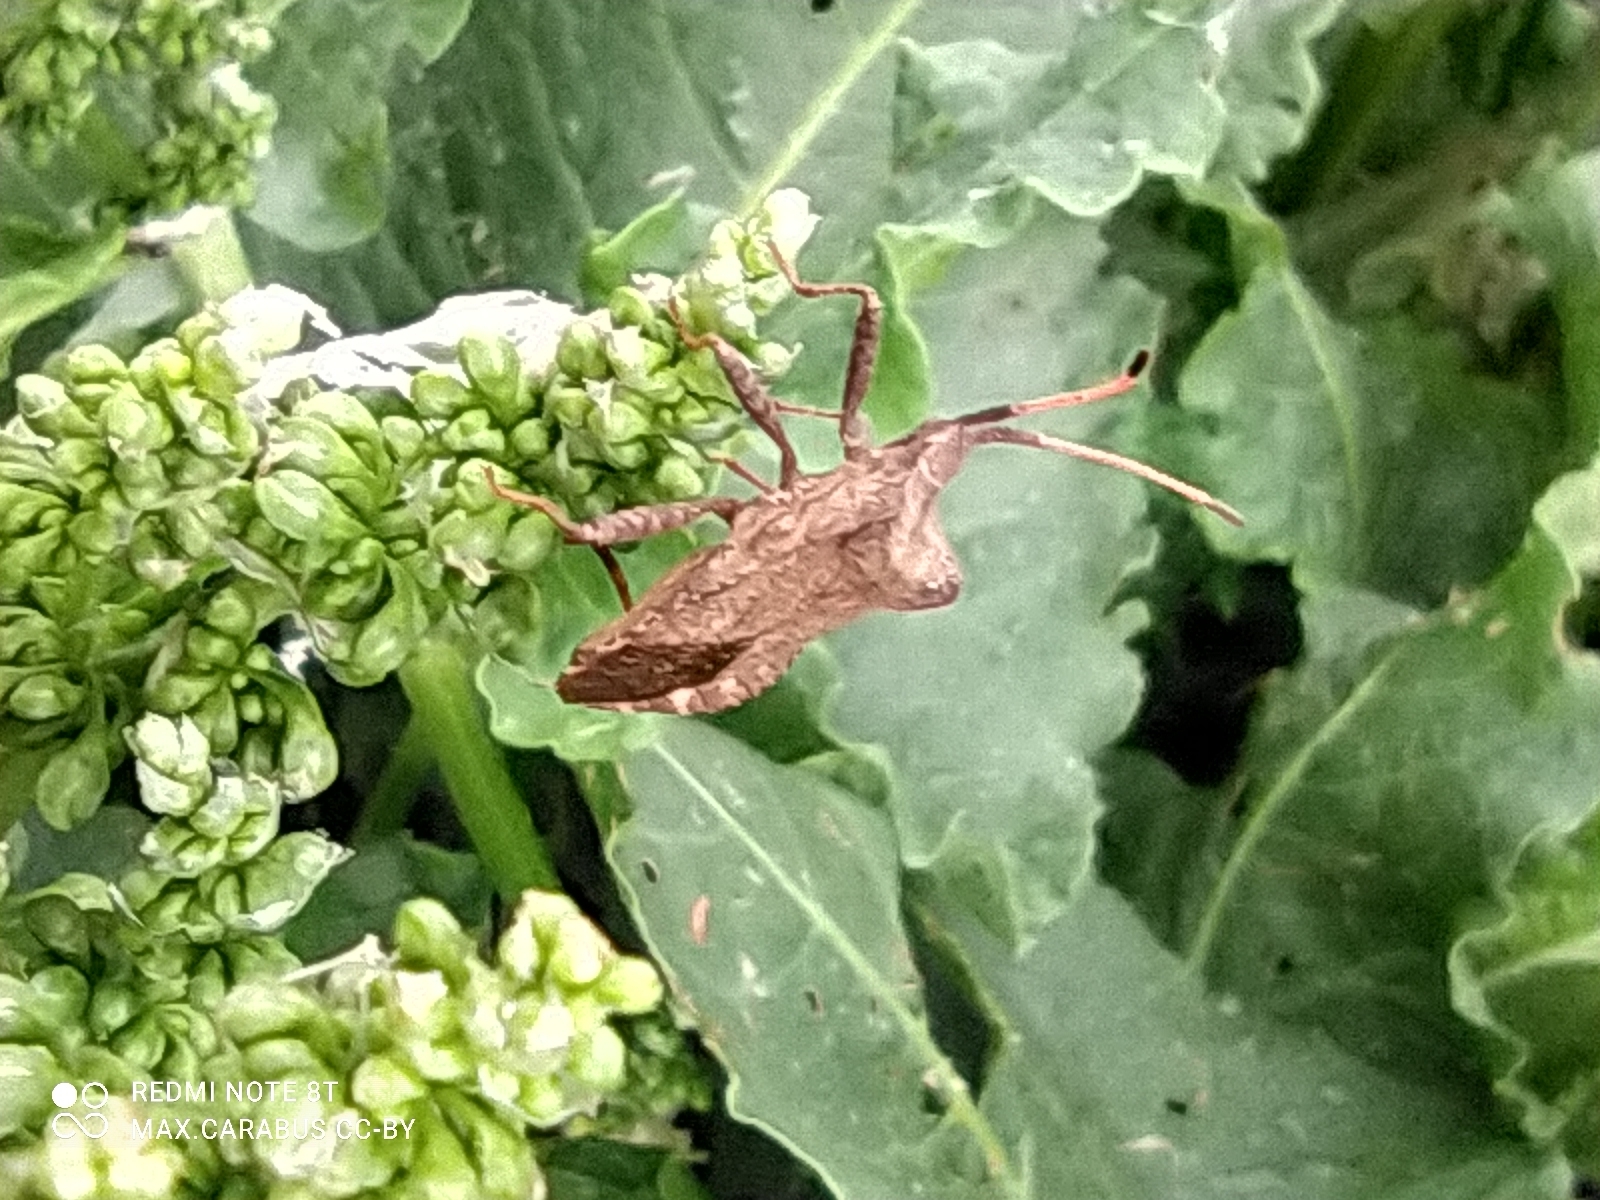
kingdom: Animalia
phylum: Arthropoda
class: Insecta
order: Hemiptera
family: Coreidae
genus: Coreus
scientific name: Coreus marginatus
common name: Dock bug
